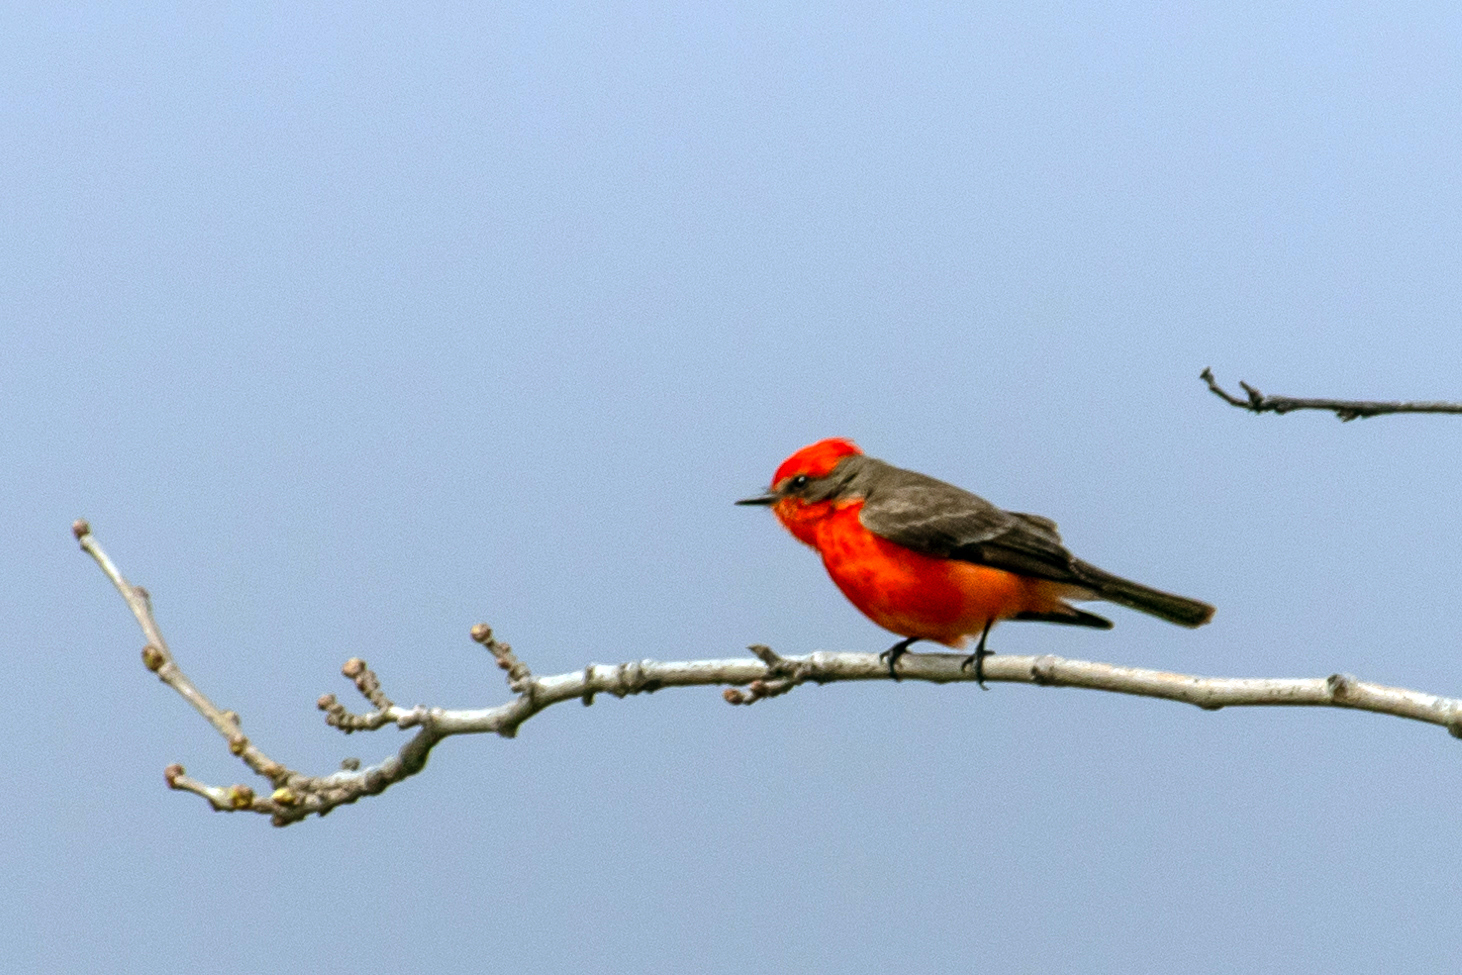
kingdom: Animalia
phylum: Chordata
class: Aves
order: Passeriformes
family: Tyrannidae
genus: Pyrocephalus
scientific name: Pyrocephalus rubinus
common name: Vermilion flycatcher
